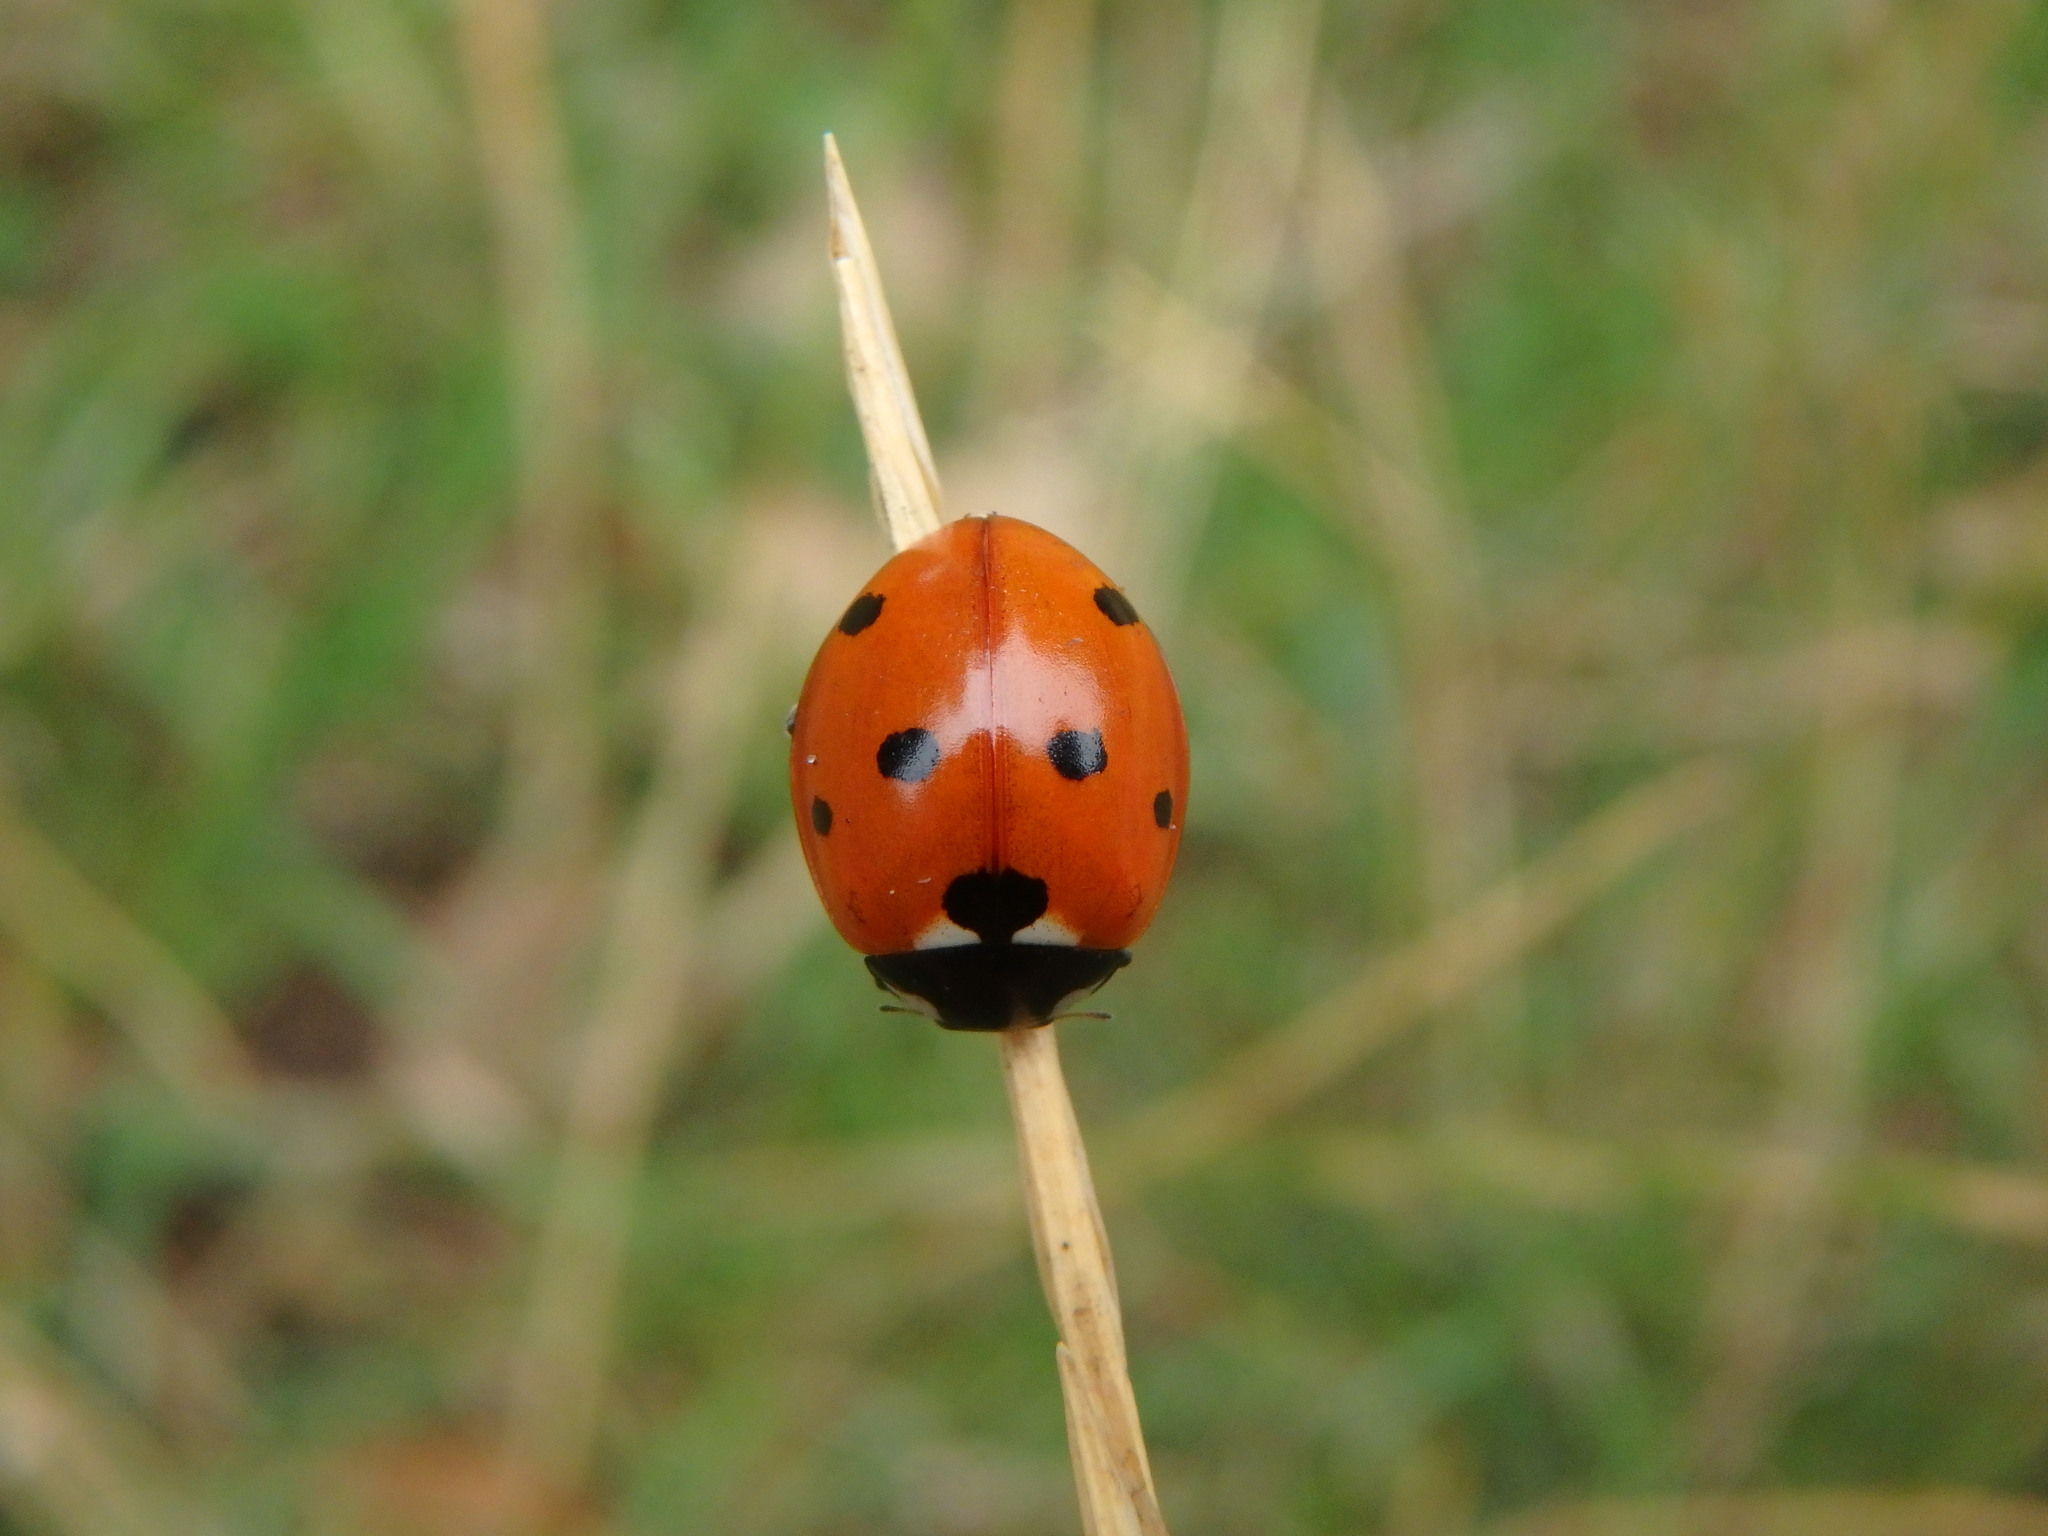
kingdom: Animalia
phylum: Arthropoda
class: Insecta
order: Coleoptera
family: Coccinellidae
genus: Coccinella
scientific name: Coccinella septempunctata
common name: Sevenspotted lady beetle
